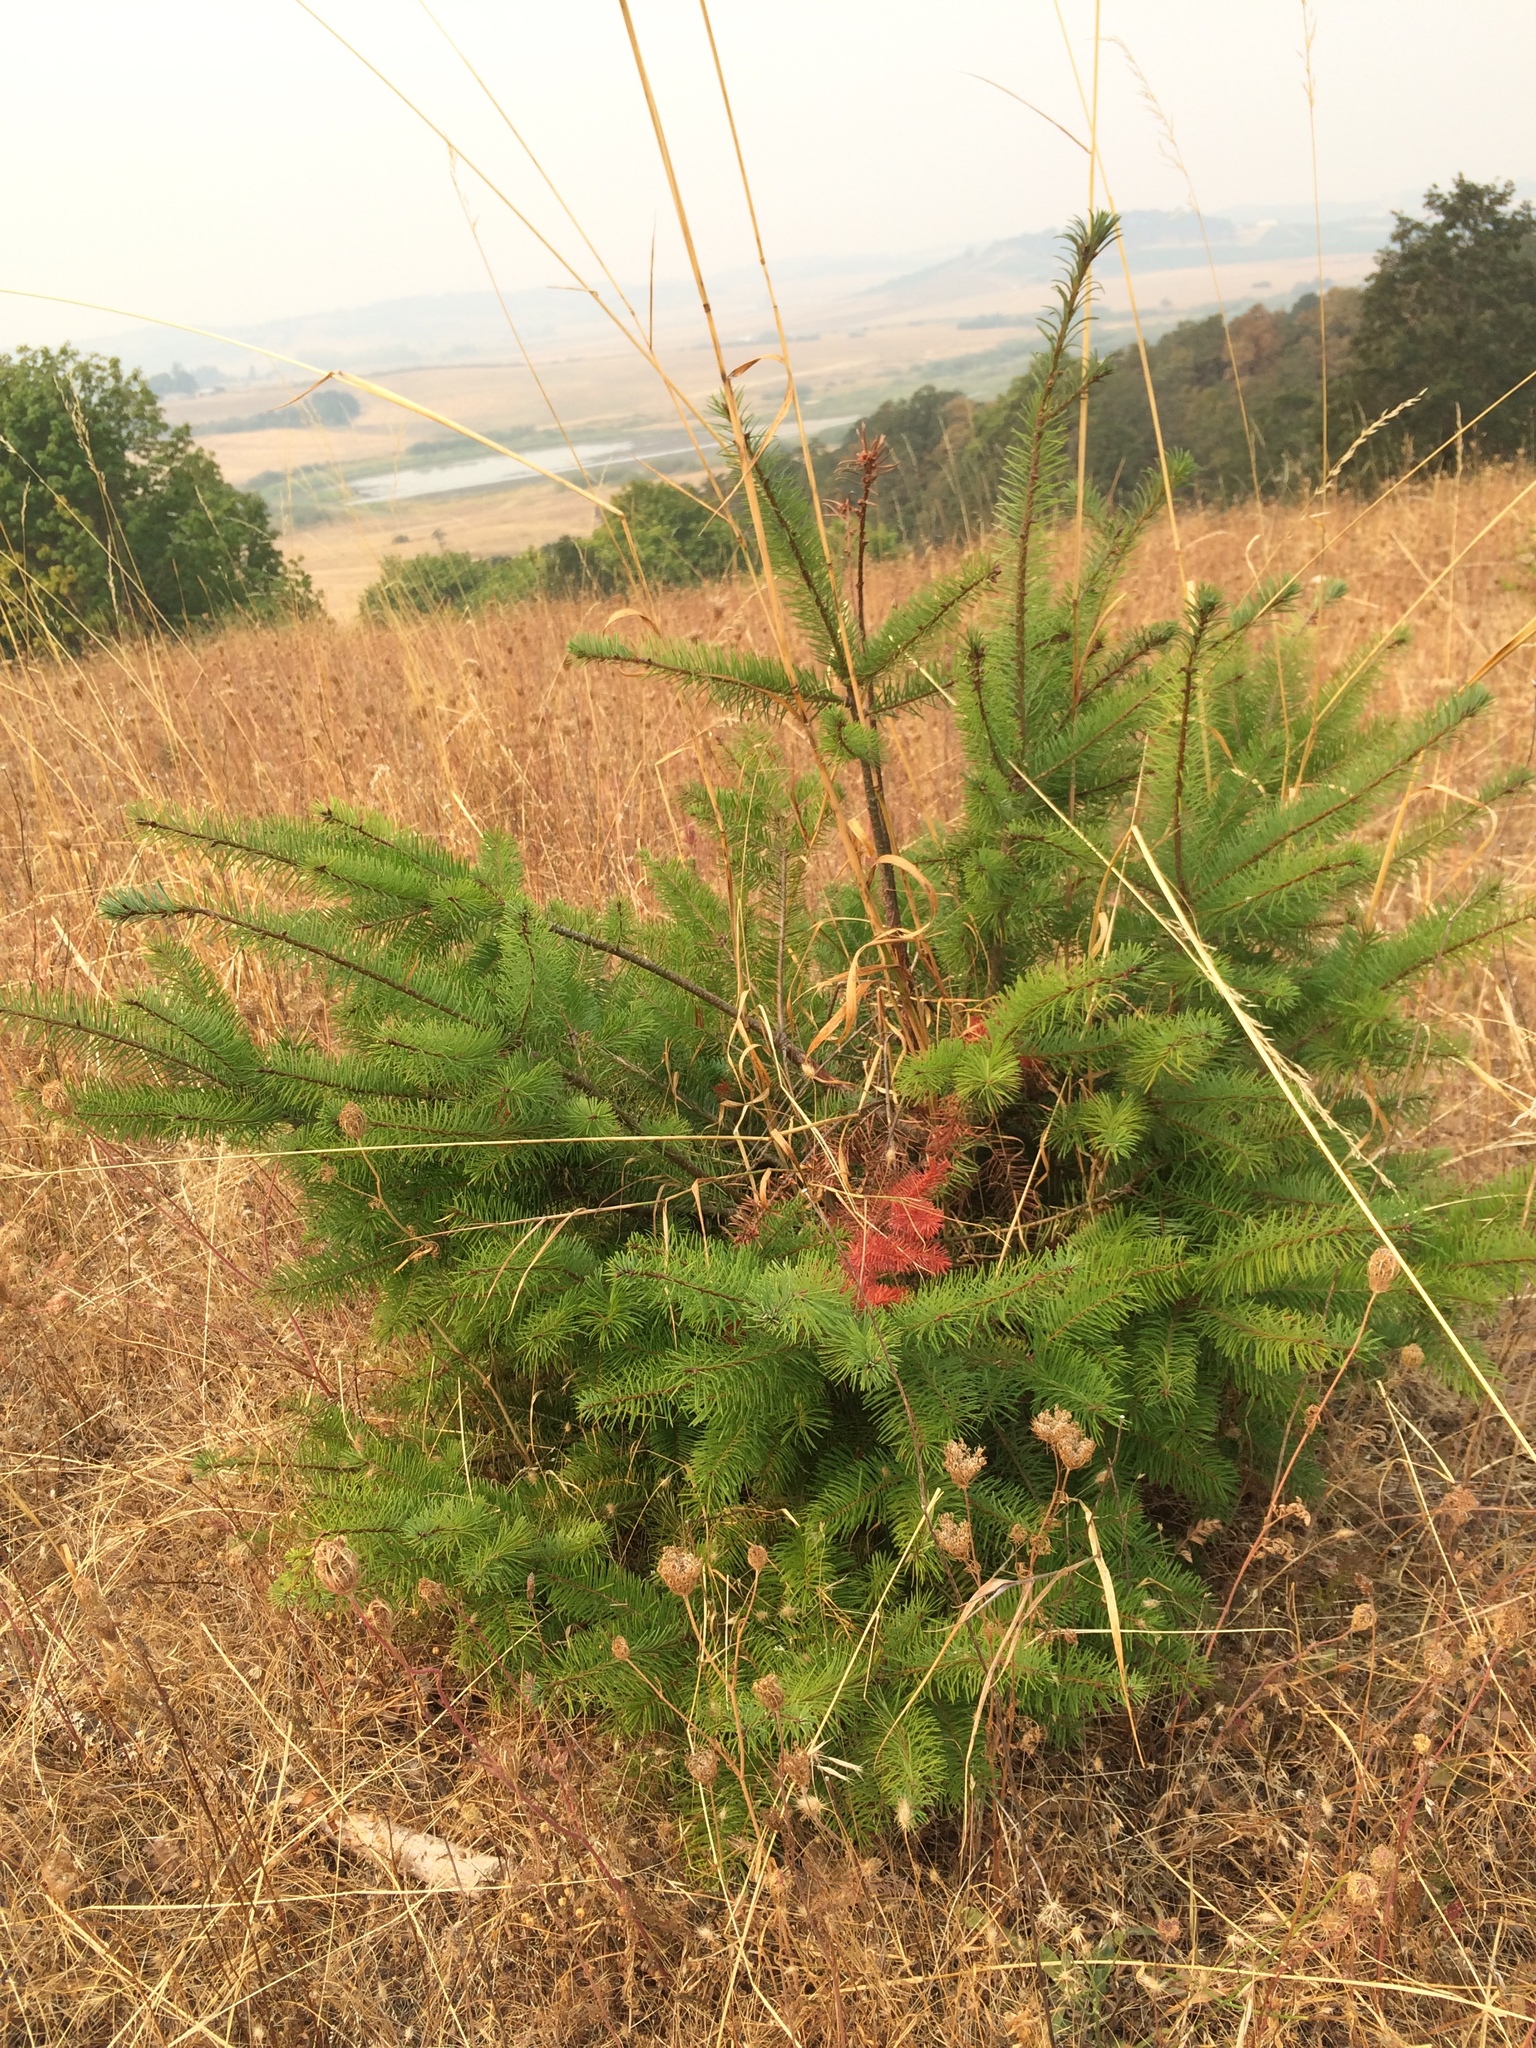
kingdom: Plantae
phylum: Tracheophyta
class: Pinopsida
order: Pinales
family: Pinaceae
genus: Pseudotsuga
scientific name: Pseudotsuga menziesii
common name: Douglas fir
